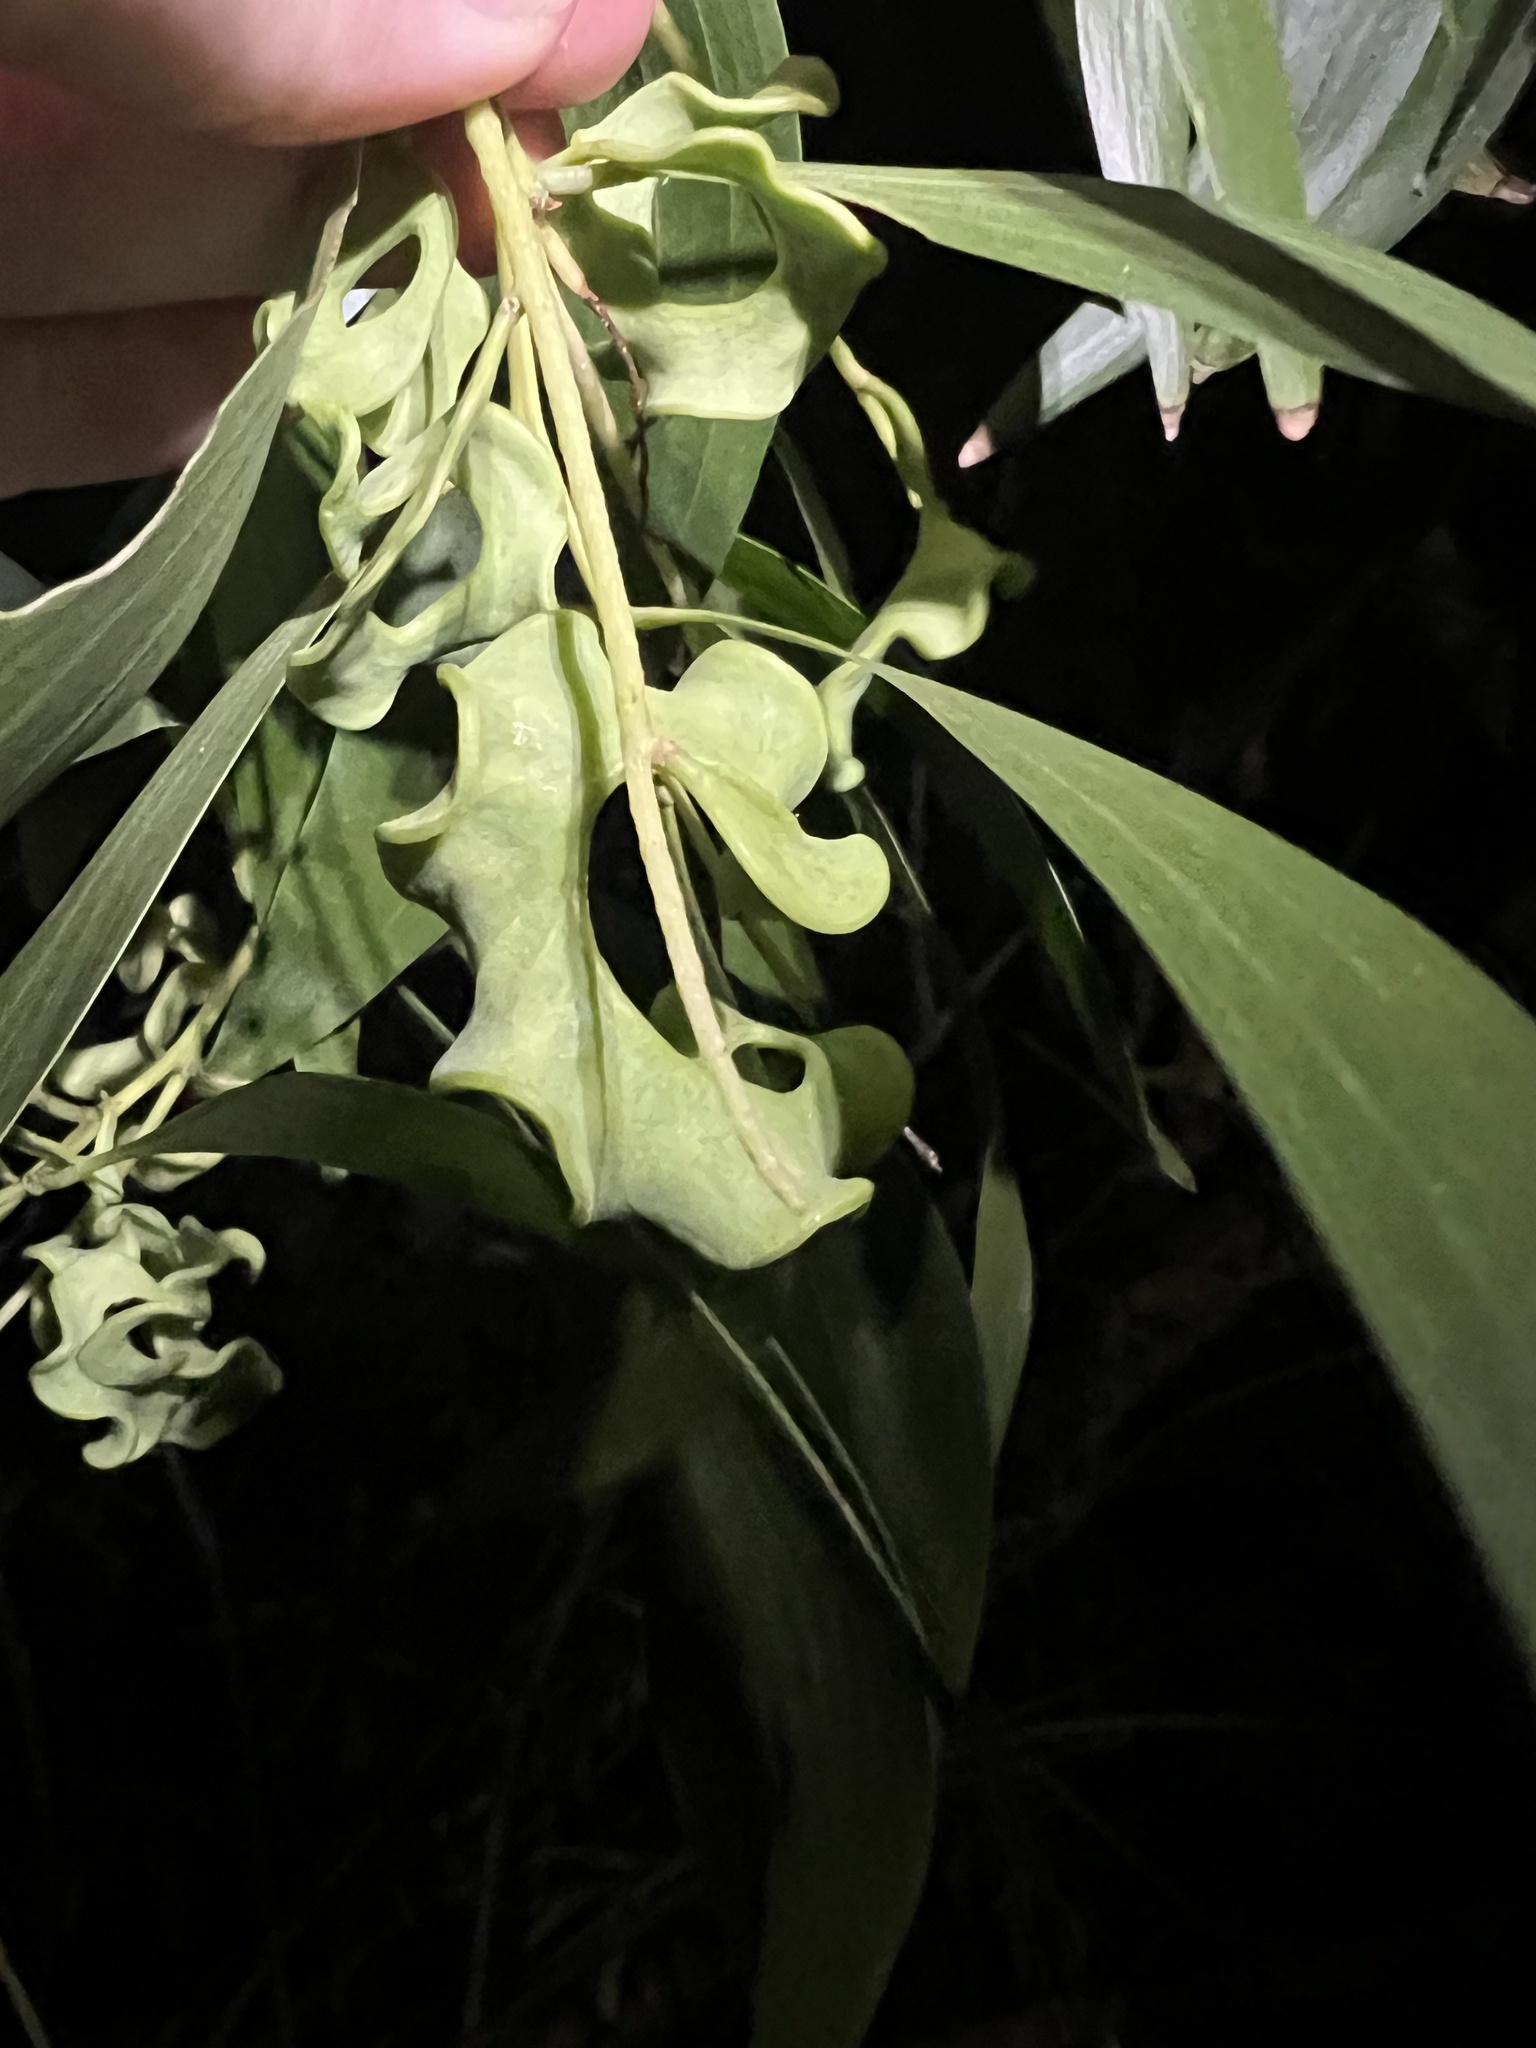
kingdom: Plantae
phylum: Tracheophyta
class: Magnoliopsida
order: Fabales
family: Fabaceae
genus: Acacia
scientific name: Acacia auriculiformis
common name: Earleaf acacia
